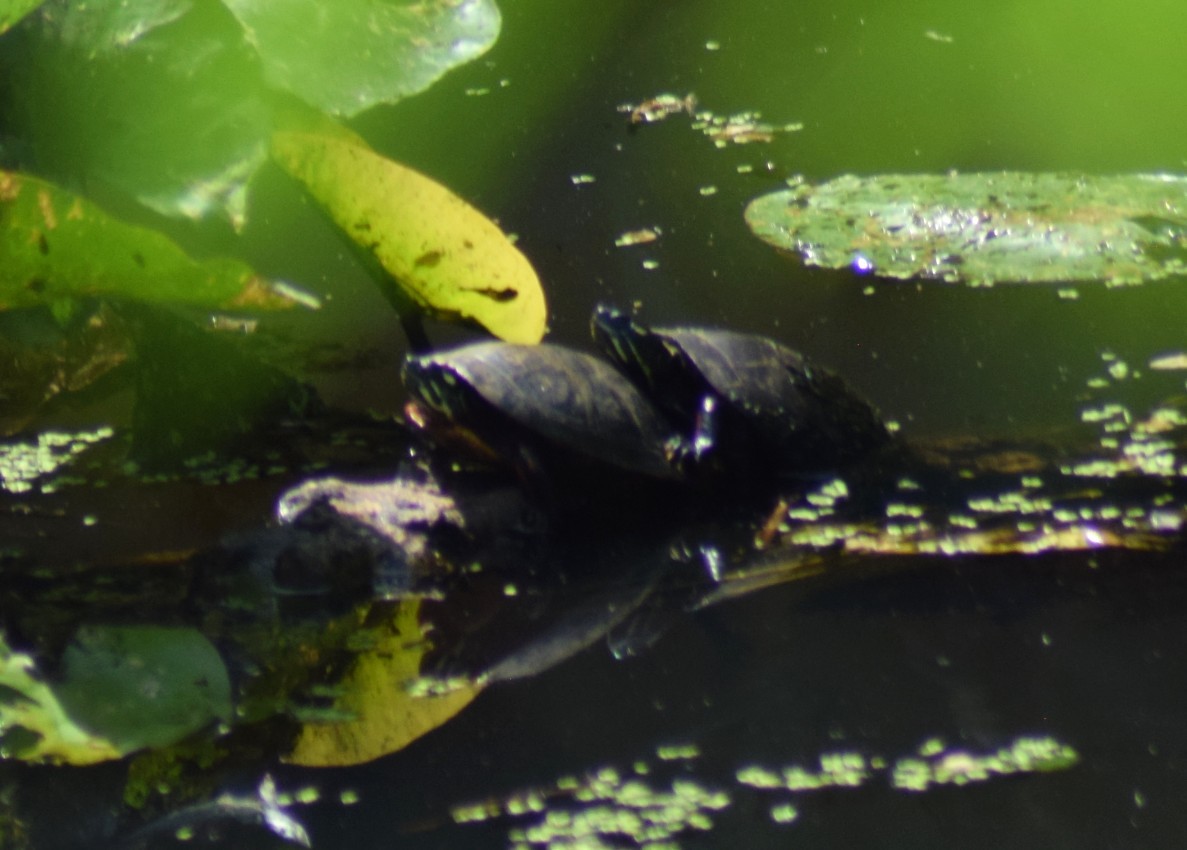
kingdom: Animalia
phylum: Chordata
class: Testudines
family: Emydidae
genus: Chrysemys
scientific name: Chrysemys picta
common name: Painted turtle
